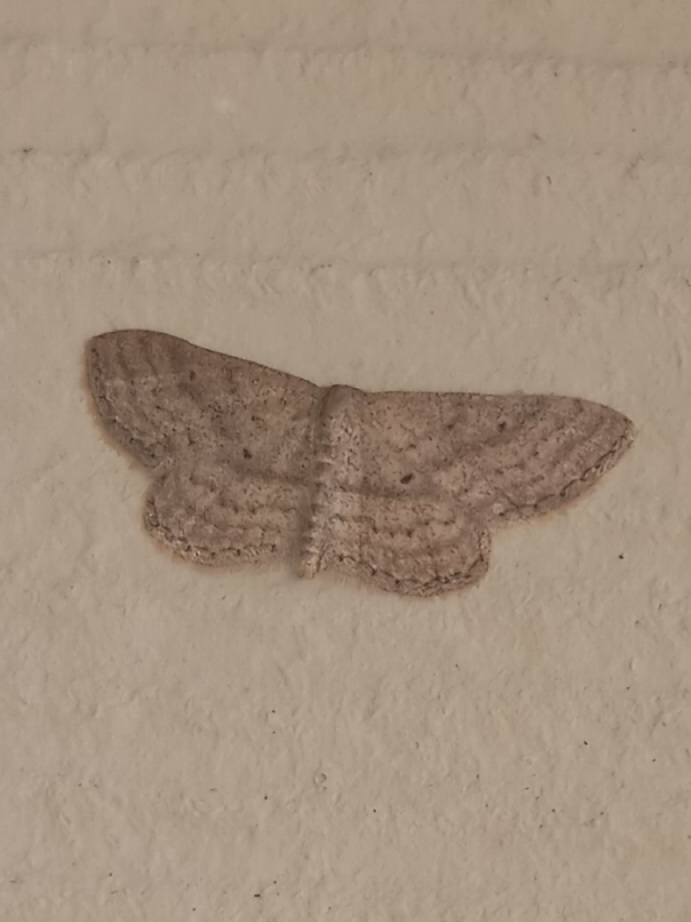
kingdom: Animalia
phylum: Arthropoda
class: Insecta
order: Lepidoptera
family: Geometridae
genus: Lobocleta
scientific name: Lobocleta ossularia
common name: Drab brown wave
